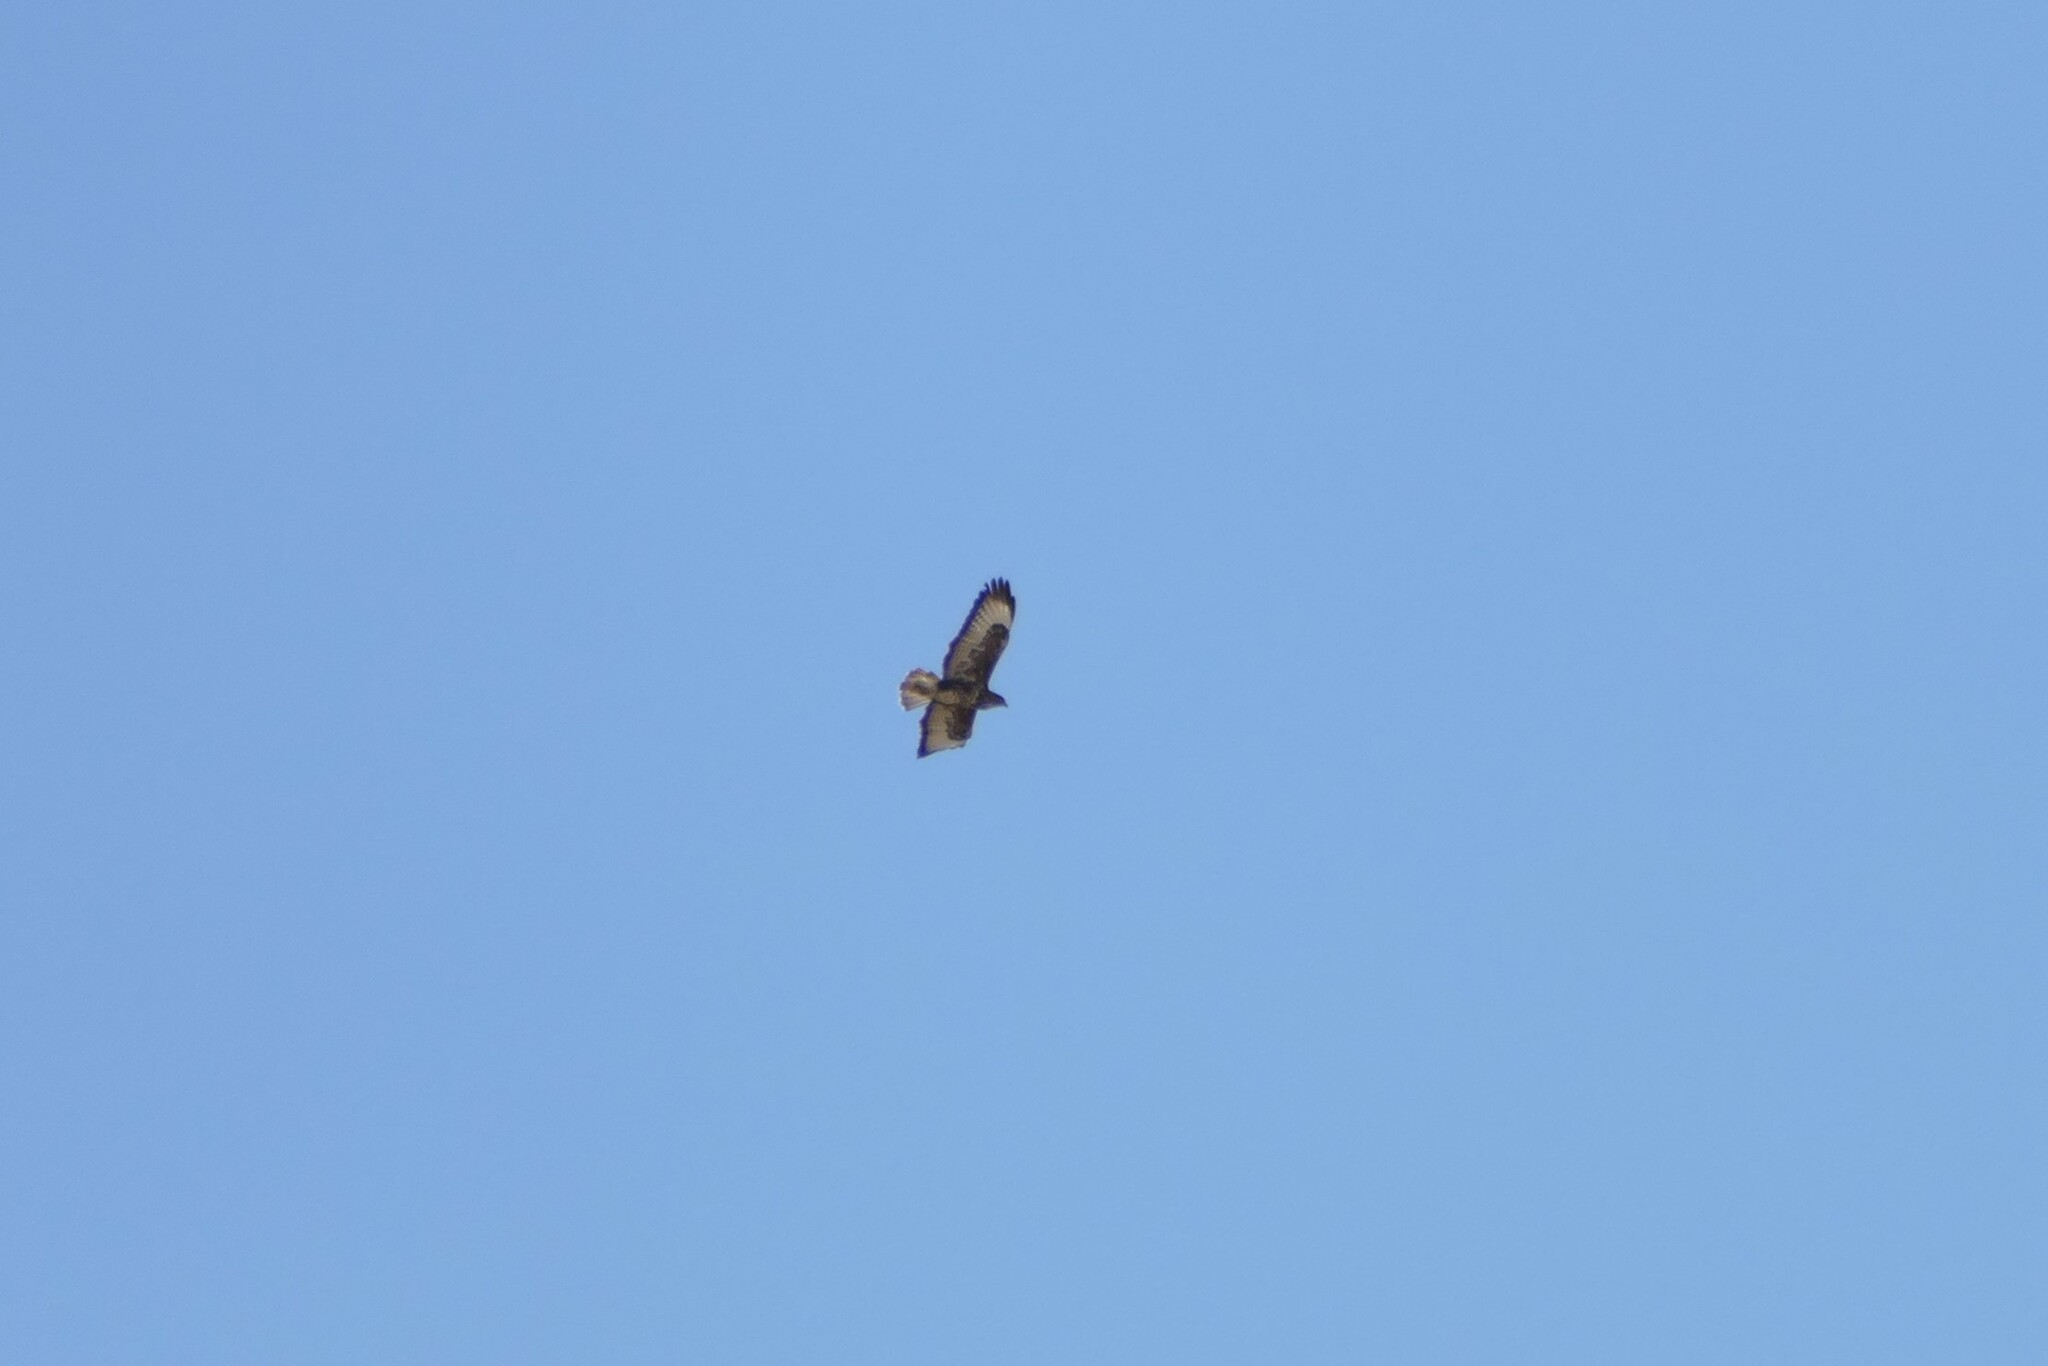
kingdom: Animalia
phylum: Chordata
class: Aves
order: Accipitriformes
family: Accipitridae
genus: Buteo
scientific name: Buteo buteo
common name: Common buzzard
